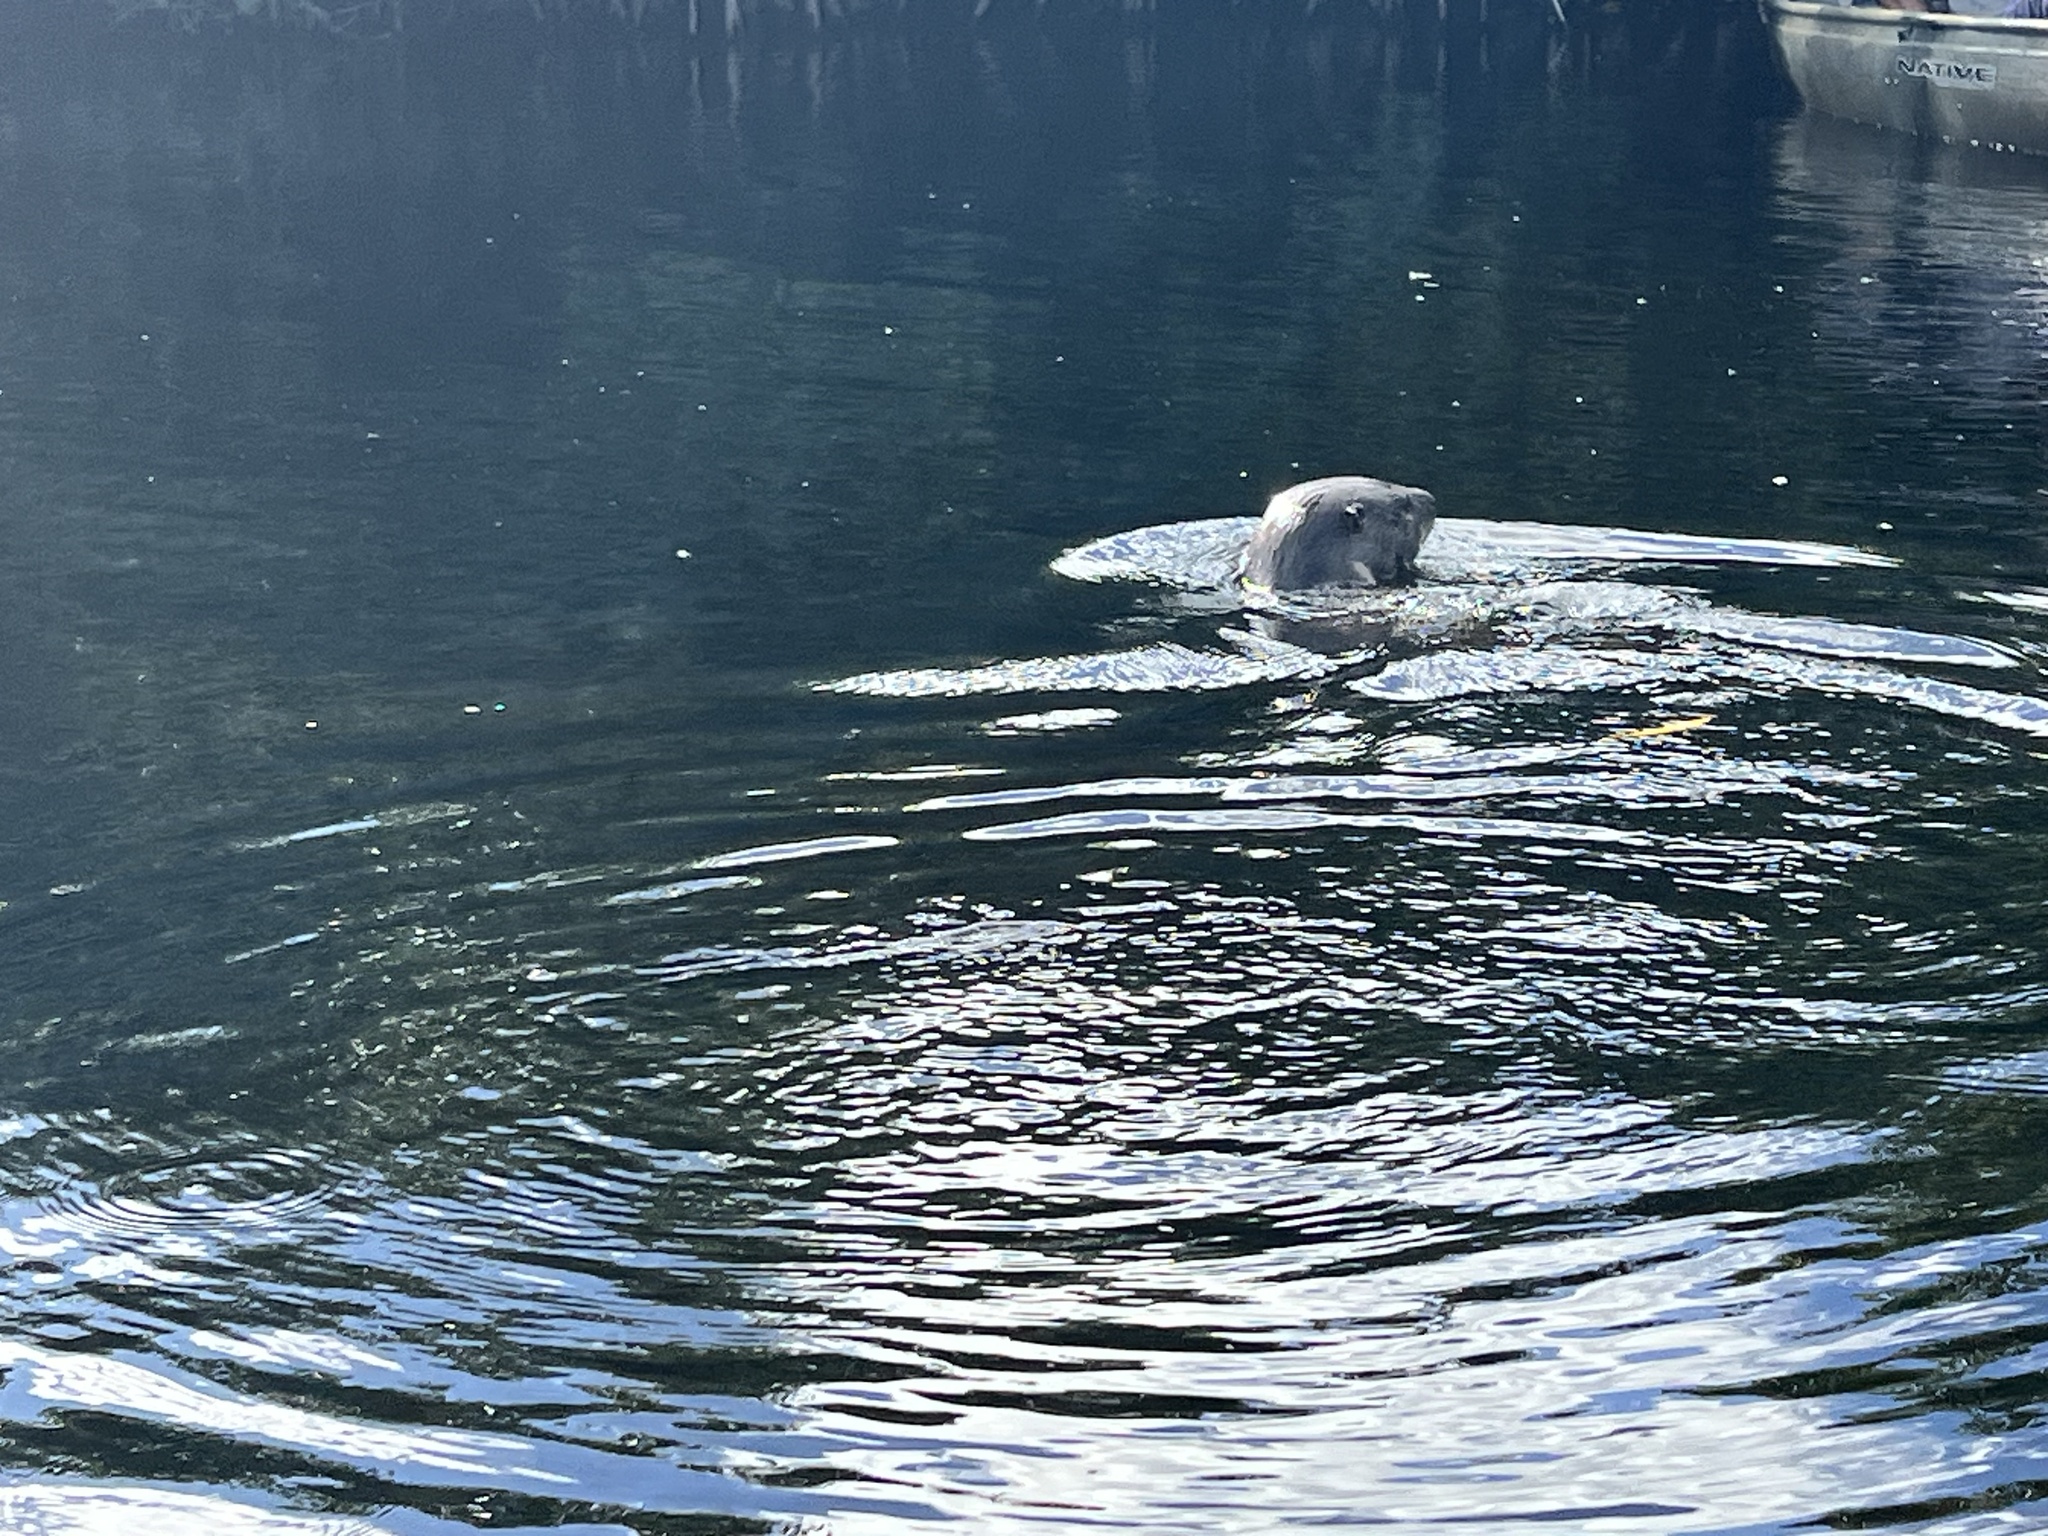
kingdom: Animalia
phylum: Chordata
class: Mammalia
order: Carnivora
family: Mustelidae
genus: Lontra
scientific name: Lontra canadensis
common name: North american river otter
